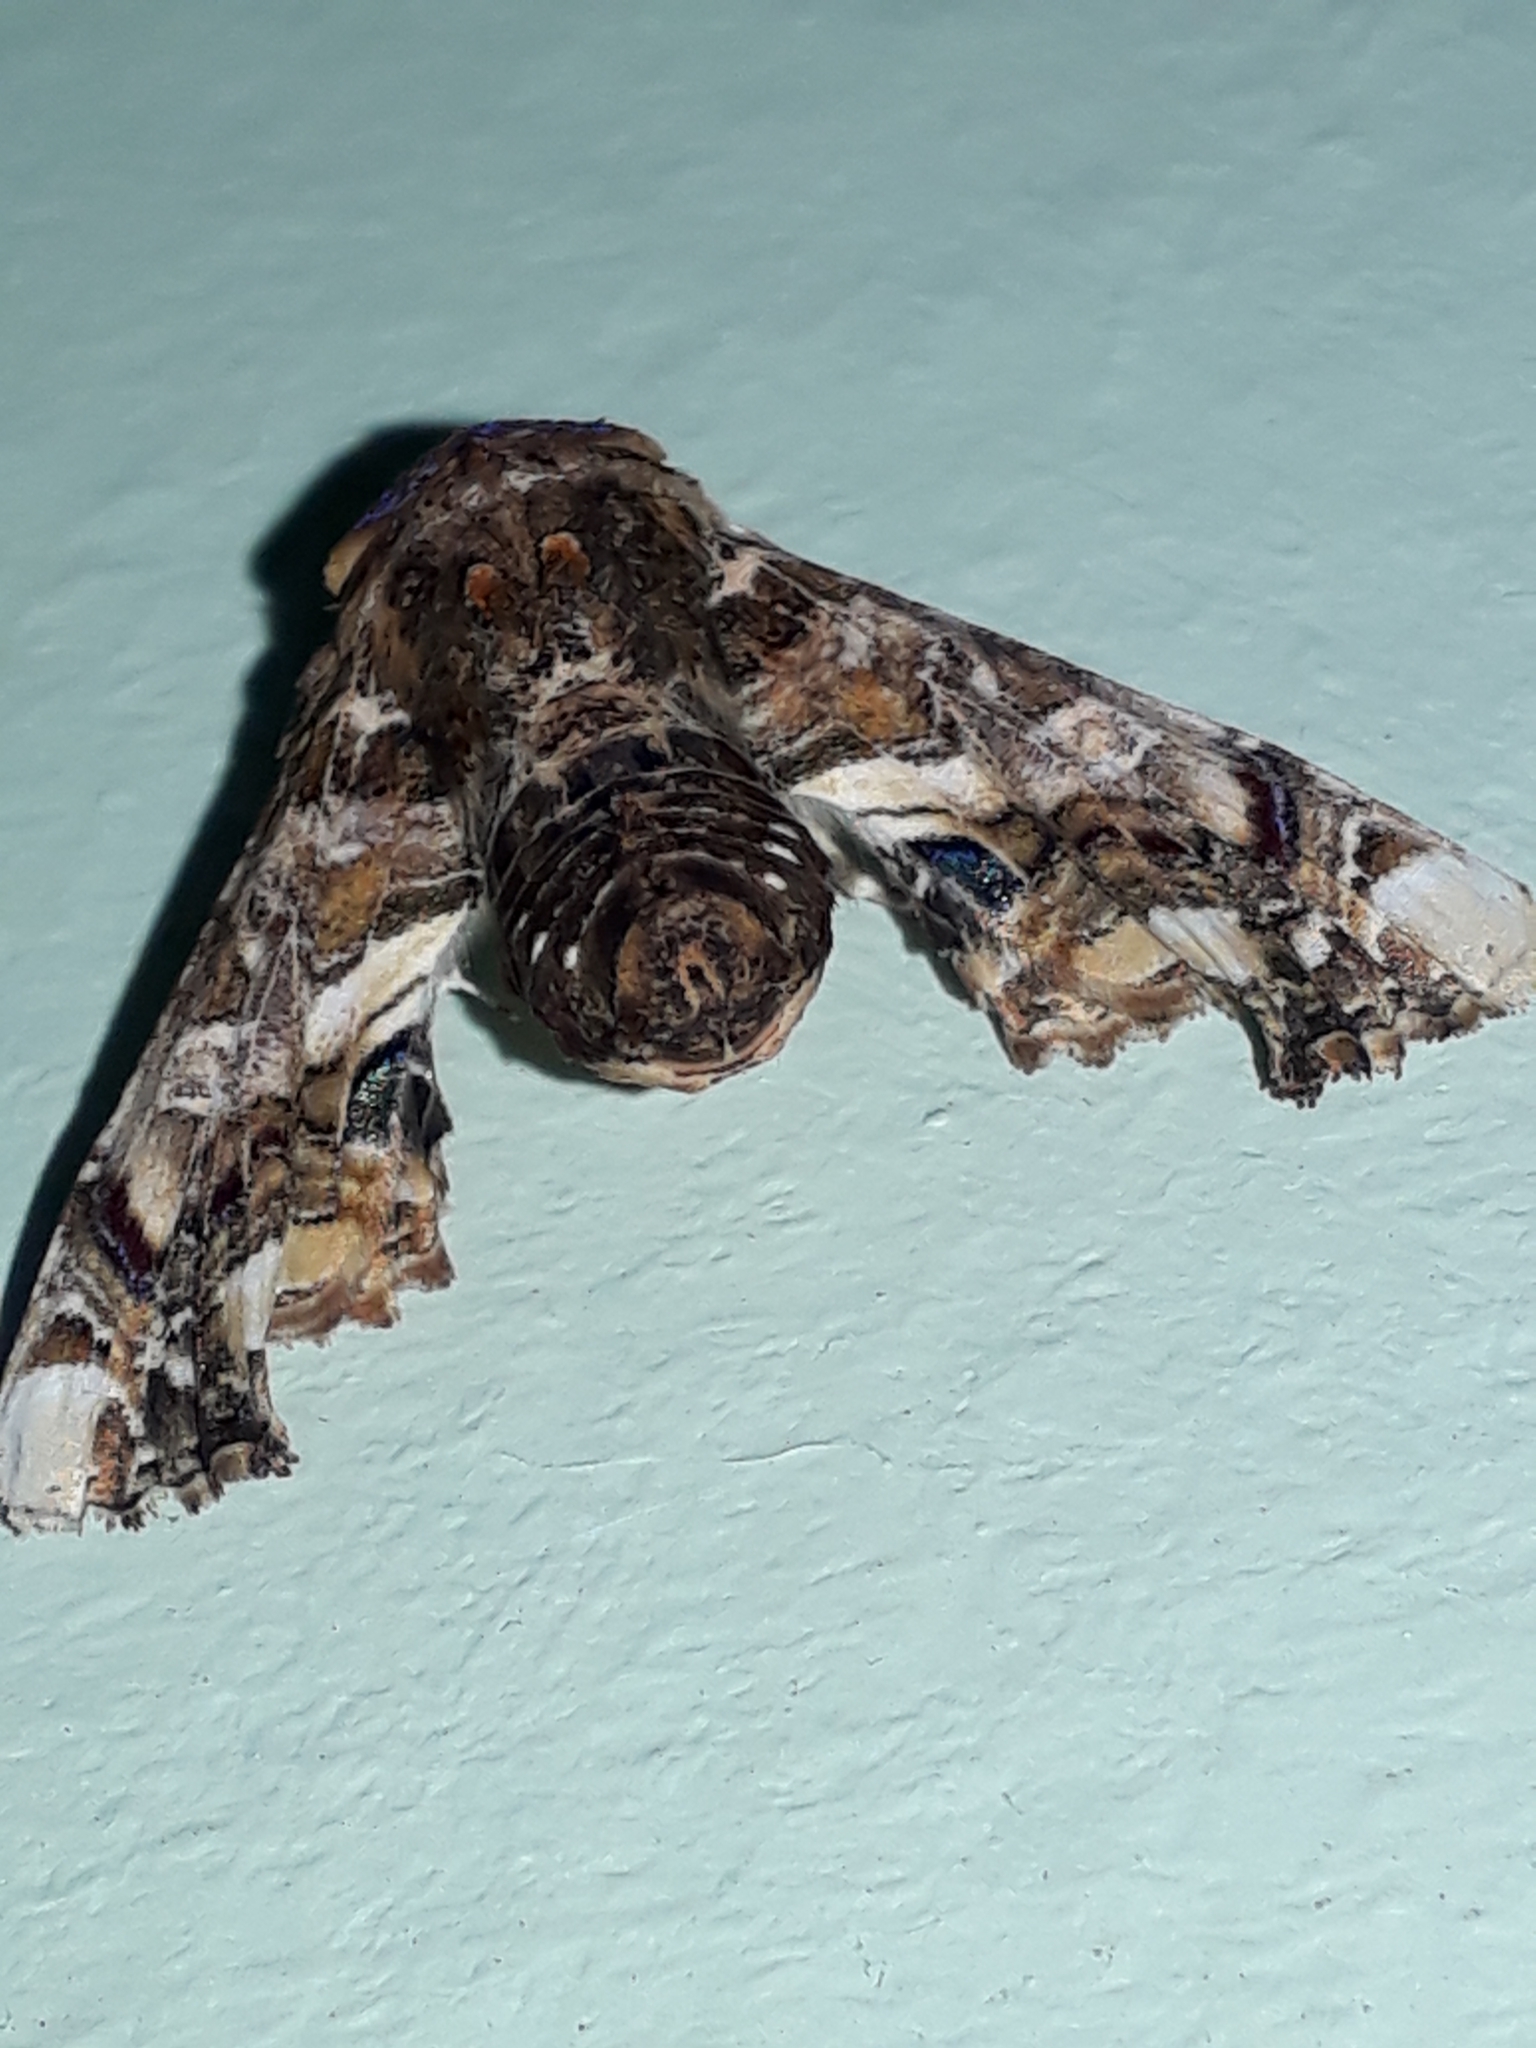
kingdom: Animalia
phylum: Arthropoda
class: Insecta
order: Lepidoptera
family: Euteliidae
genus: Eutelia
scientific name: Eutelia adulatrix
